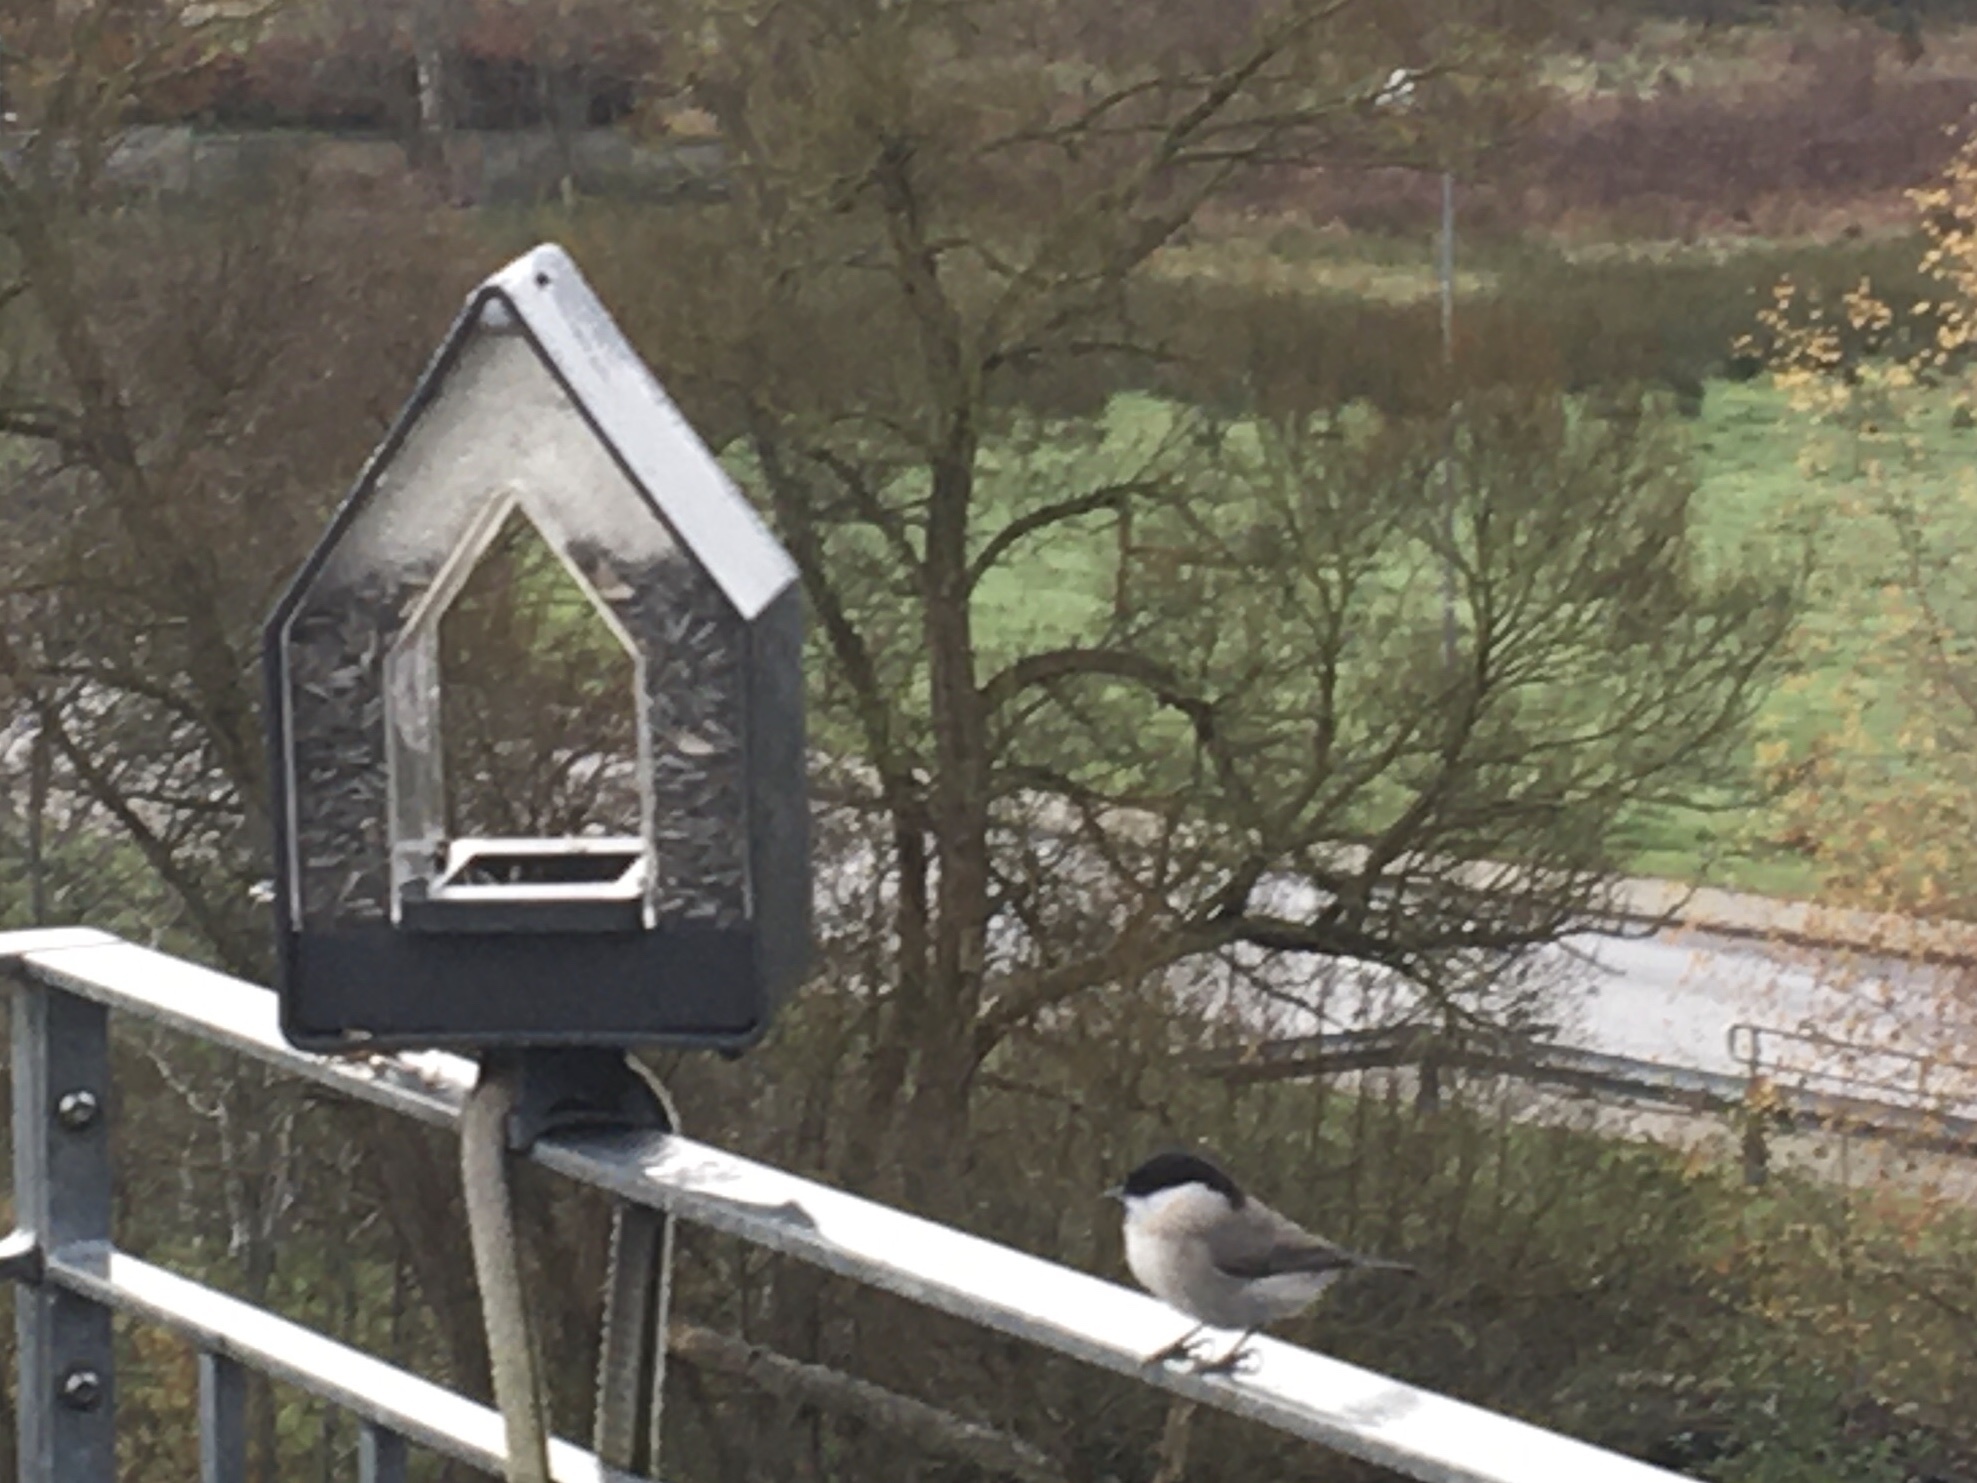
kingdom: Animalia
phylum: Chordata
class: Aves
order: Passeriformes
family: Paridae
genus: Poecile
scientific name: Poecile palustris
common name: Marsh tit
